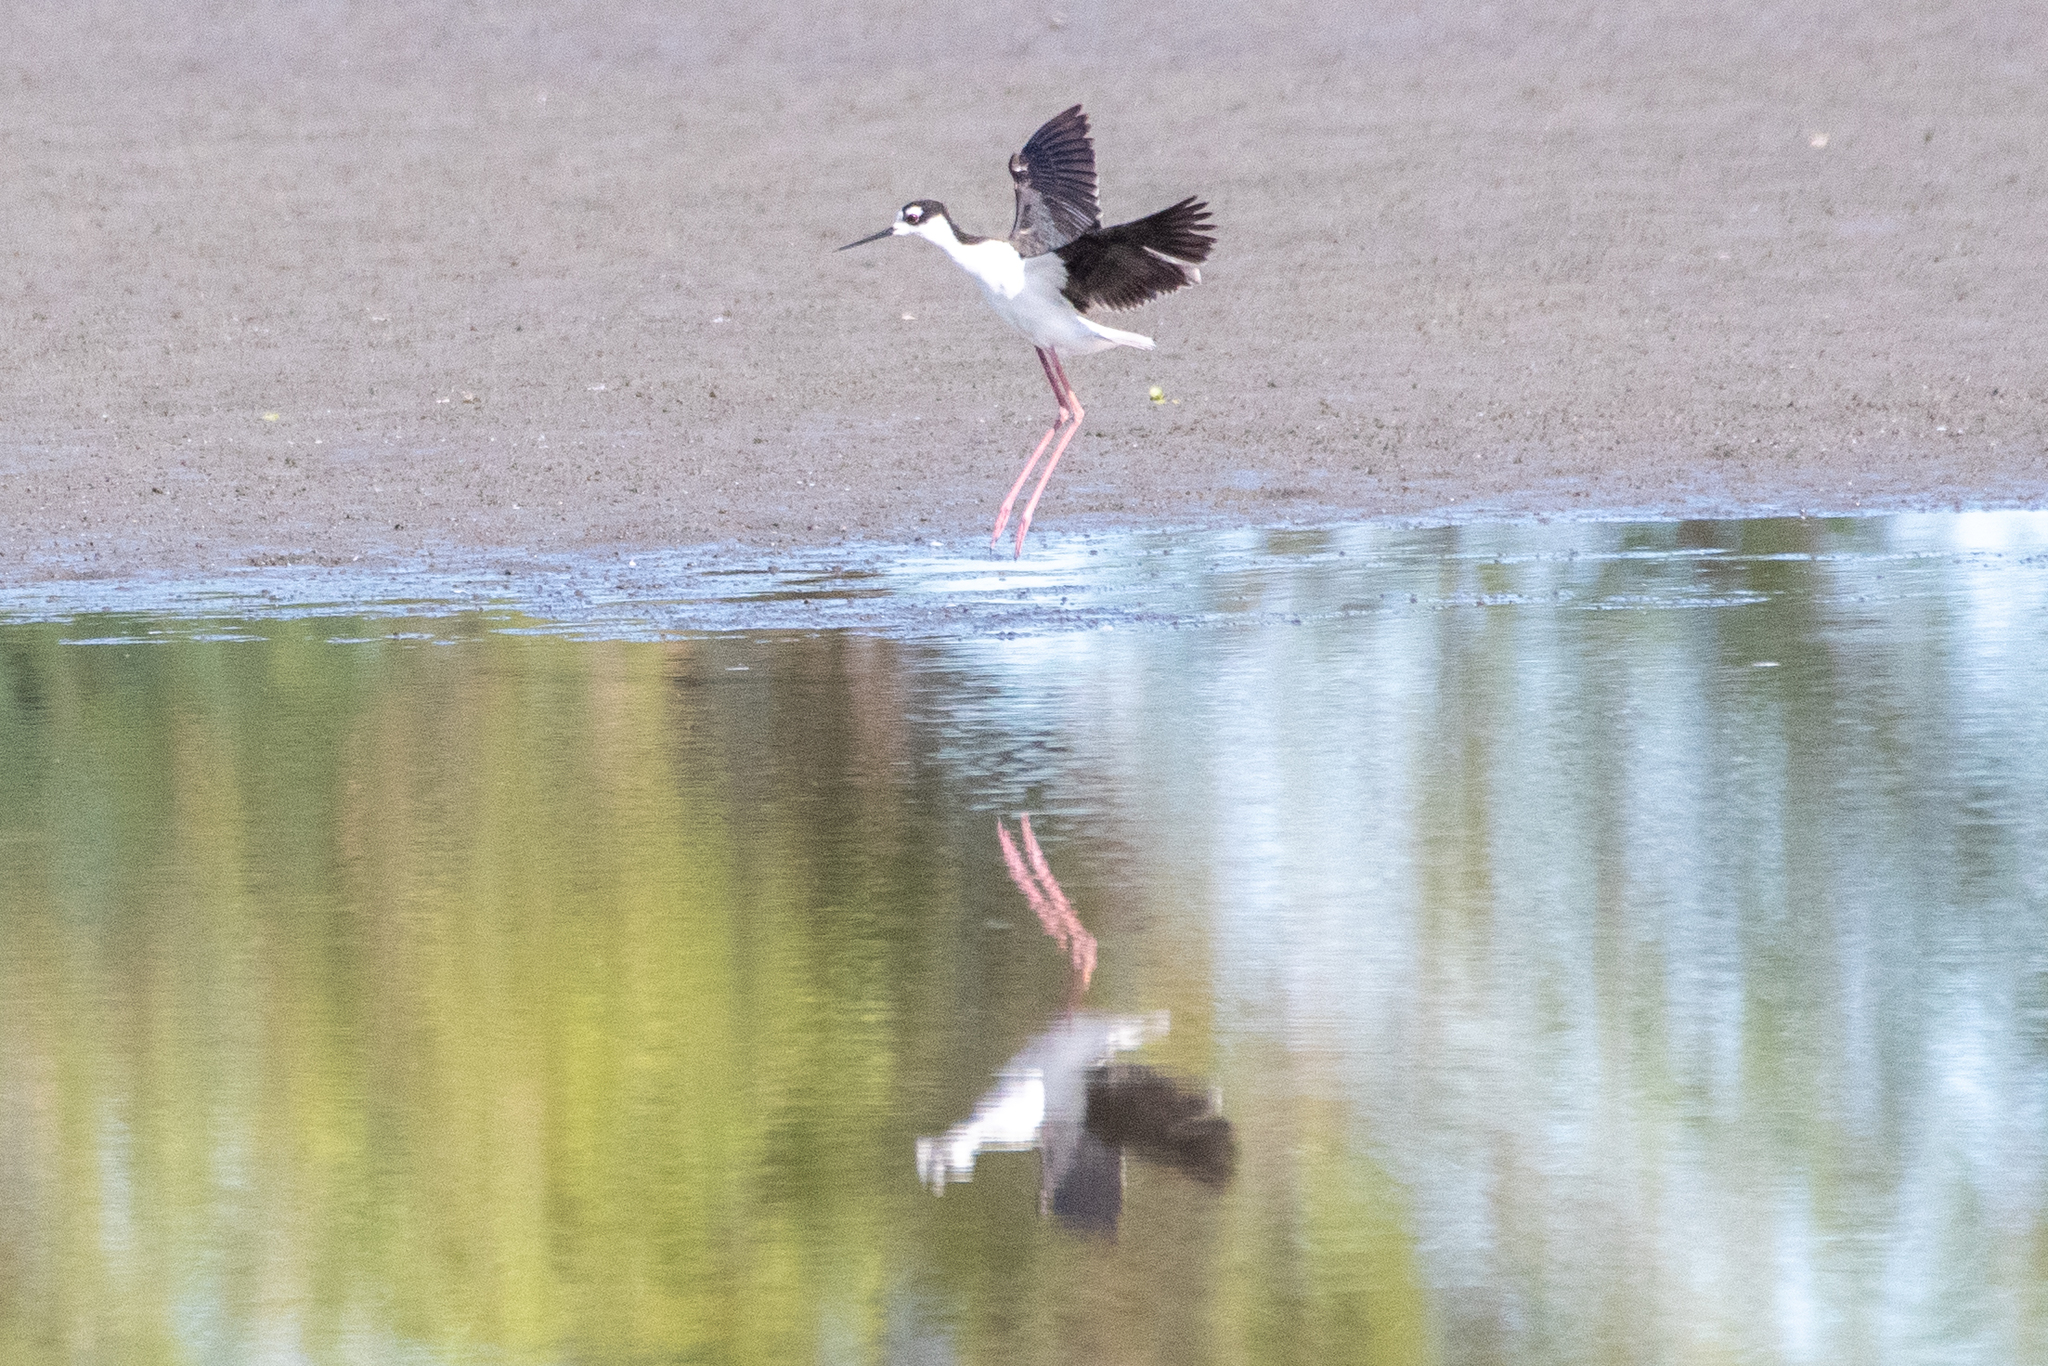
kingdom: Animalia
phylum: Chordata
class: Aves
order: Charadriiformes
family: Recurvirostridae
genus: Himantopus
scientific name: Himantopus mexicanus
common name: Black-necked stilt
